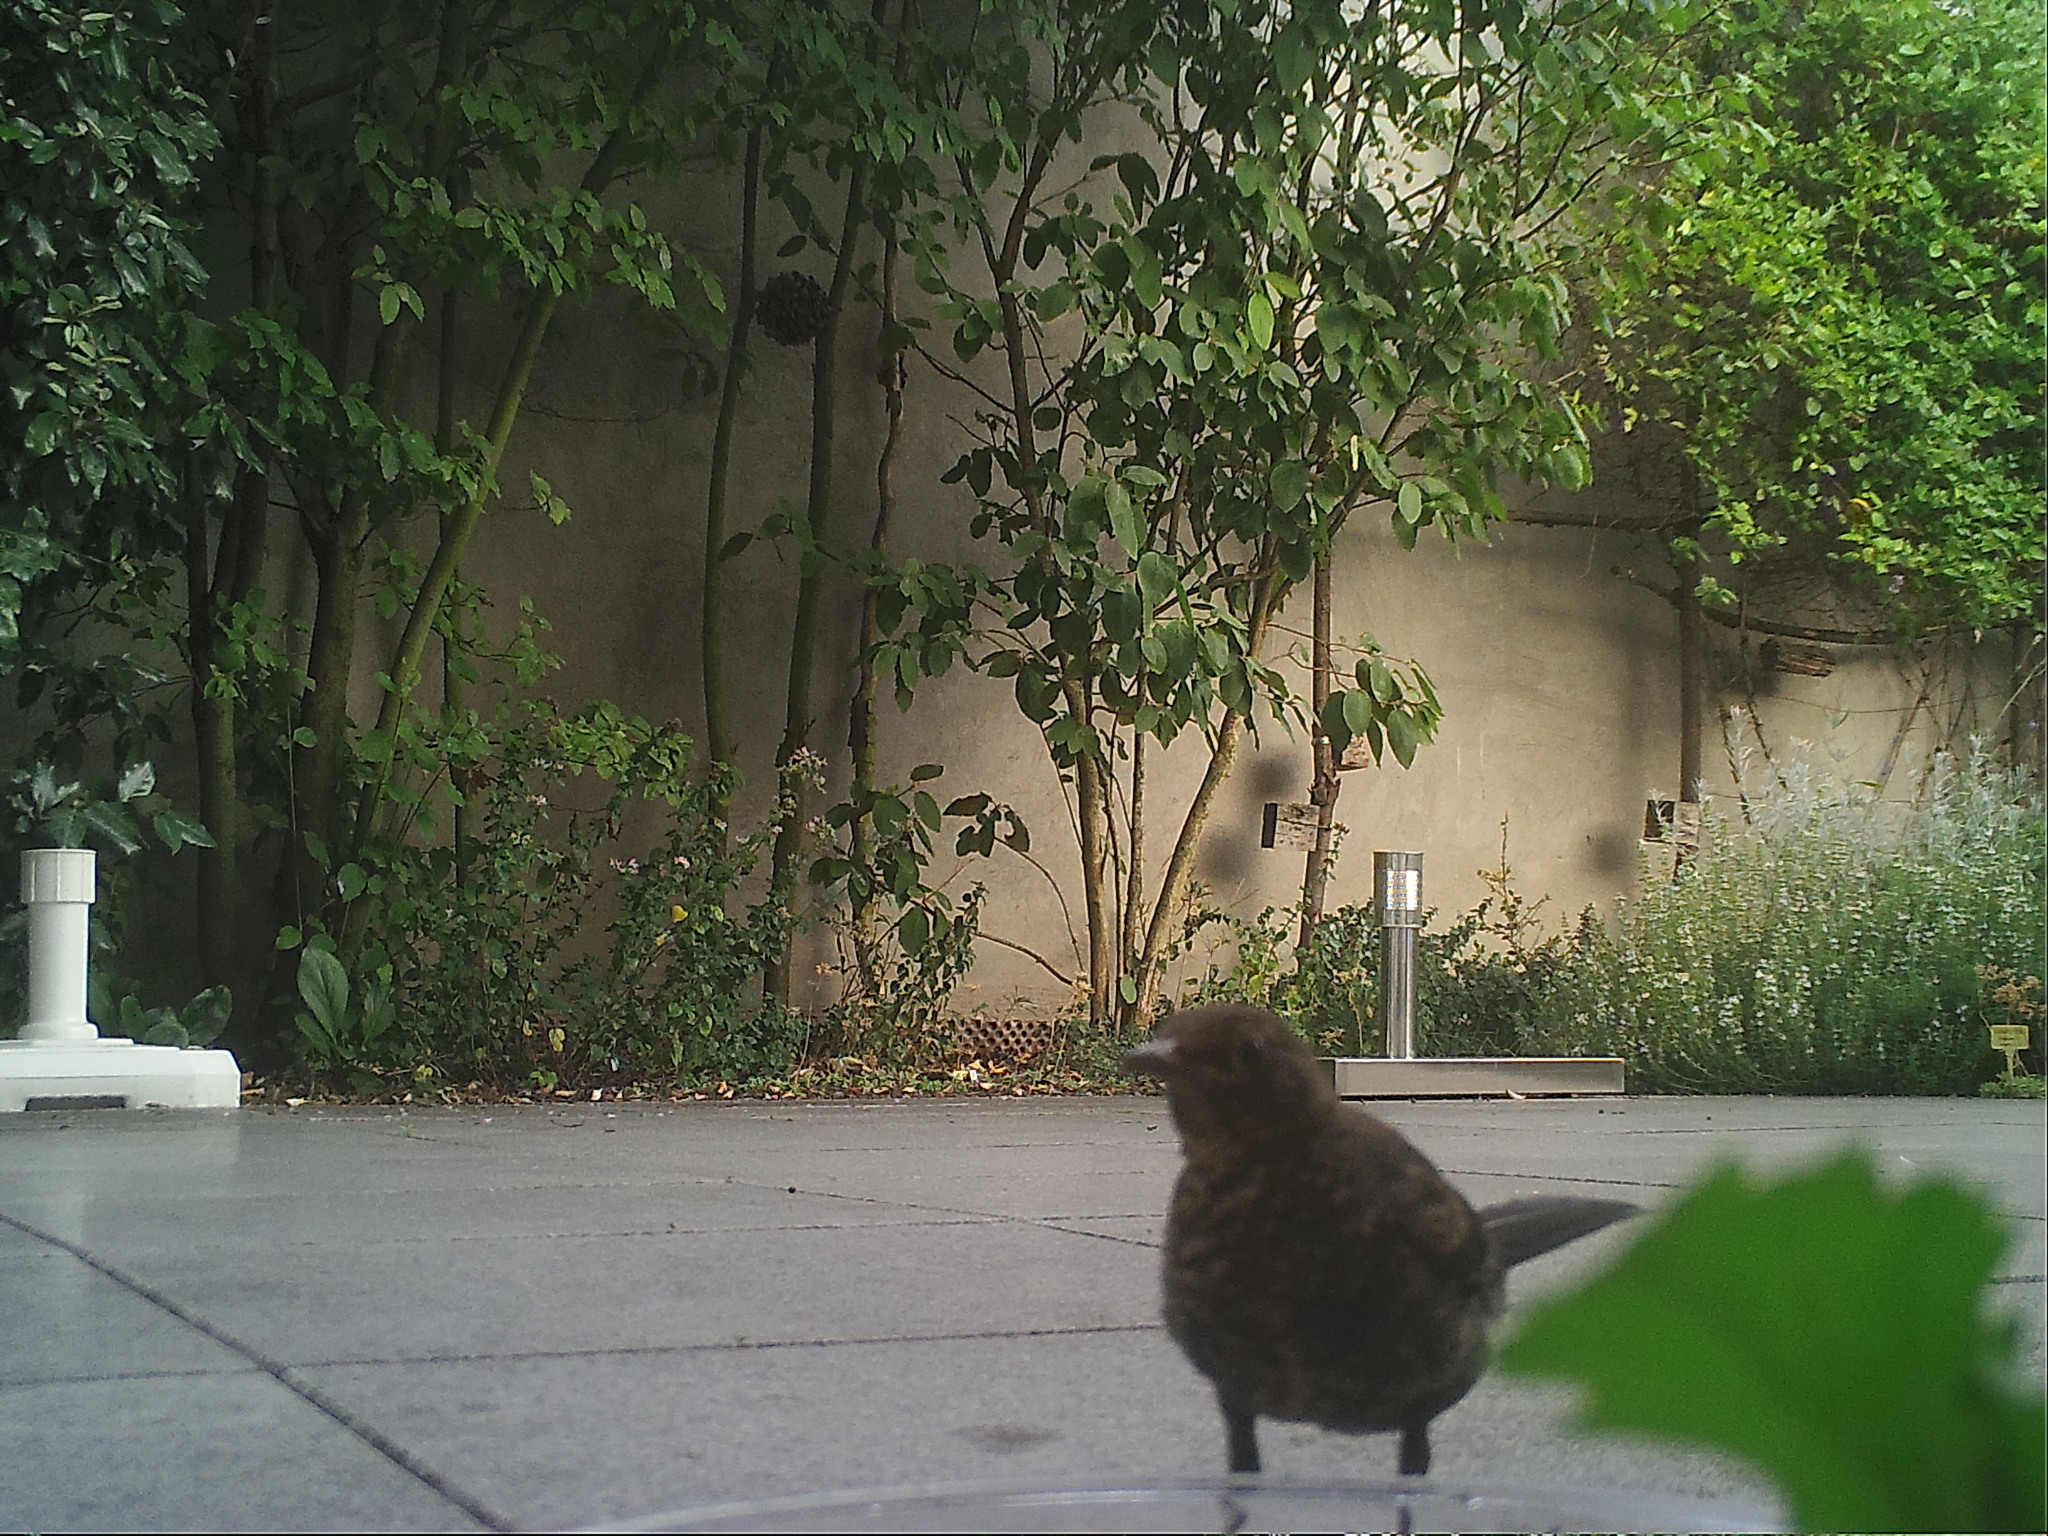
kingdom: Animalia
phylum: Chordata
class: Aves
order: Passeriformes
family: Turdidae
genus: Turdus
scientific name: Turdus merula
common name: Common blackbird
